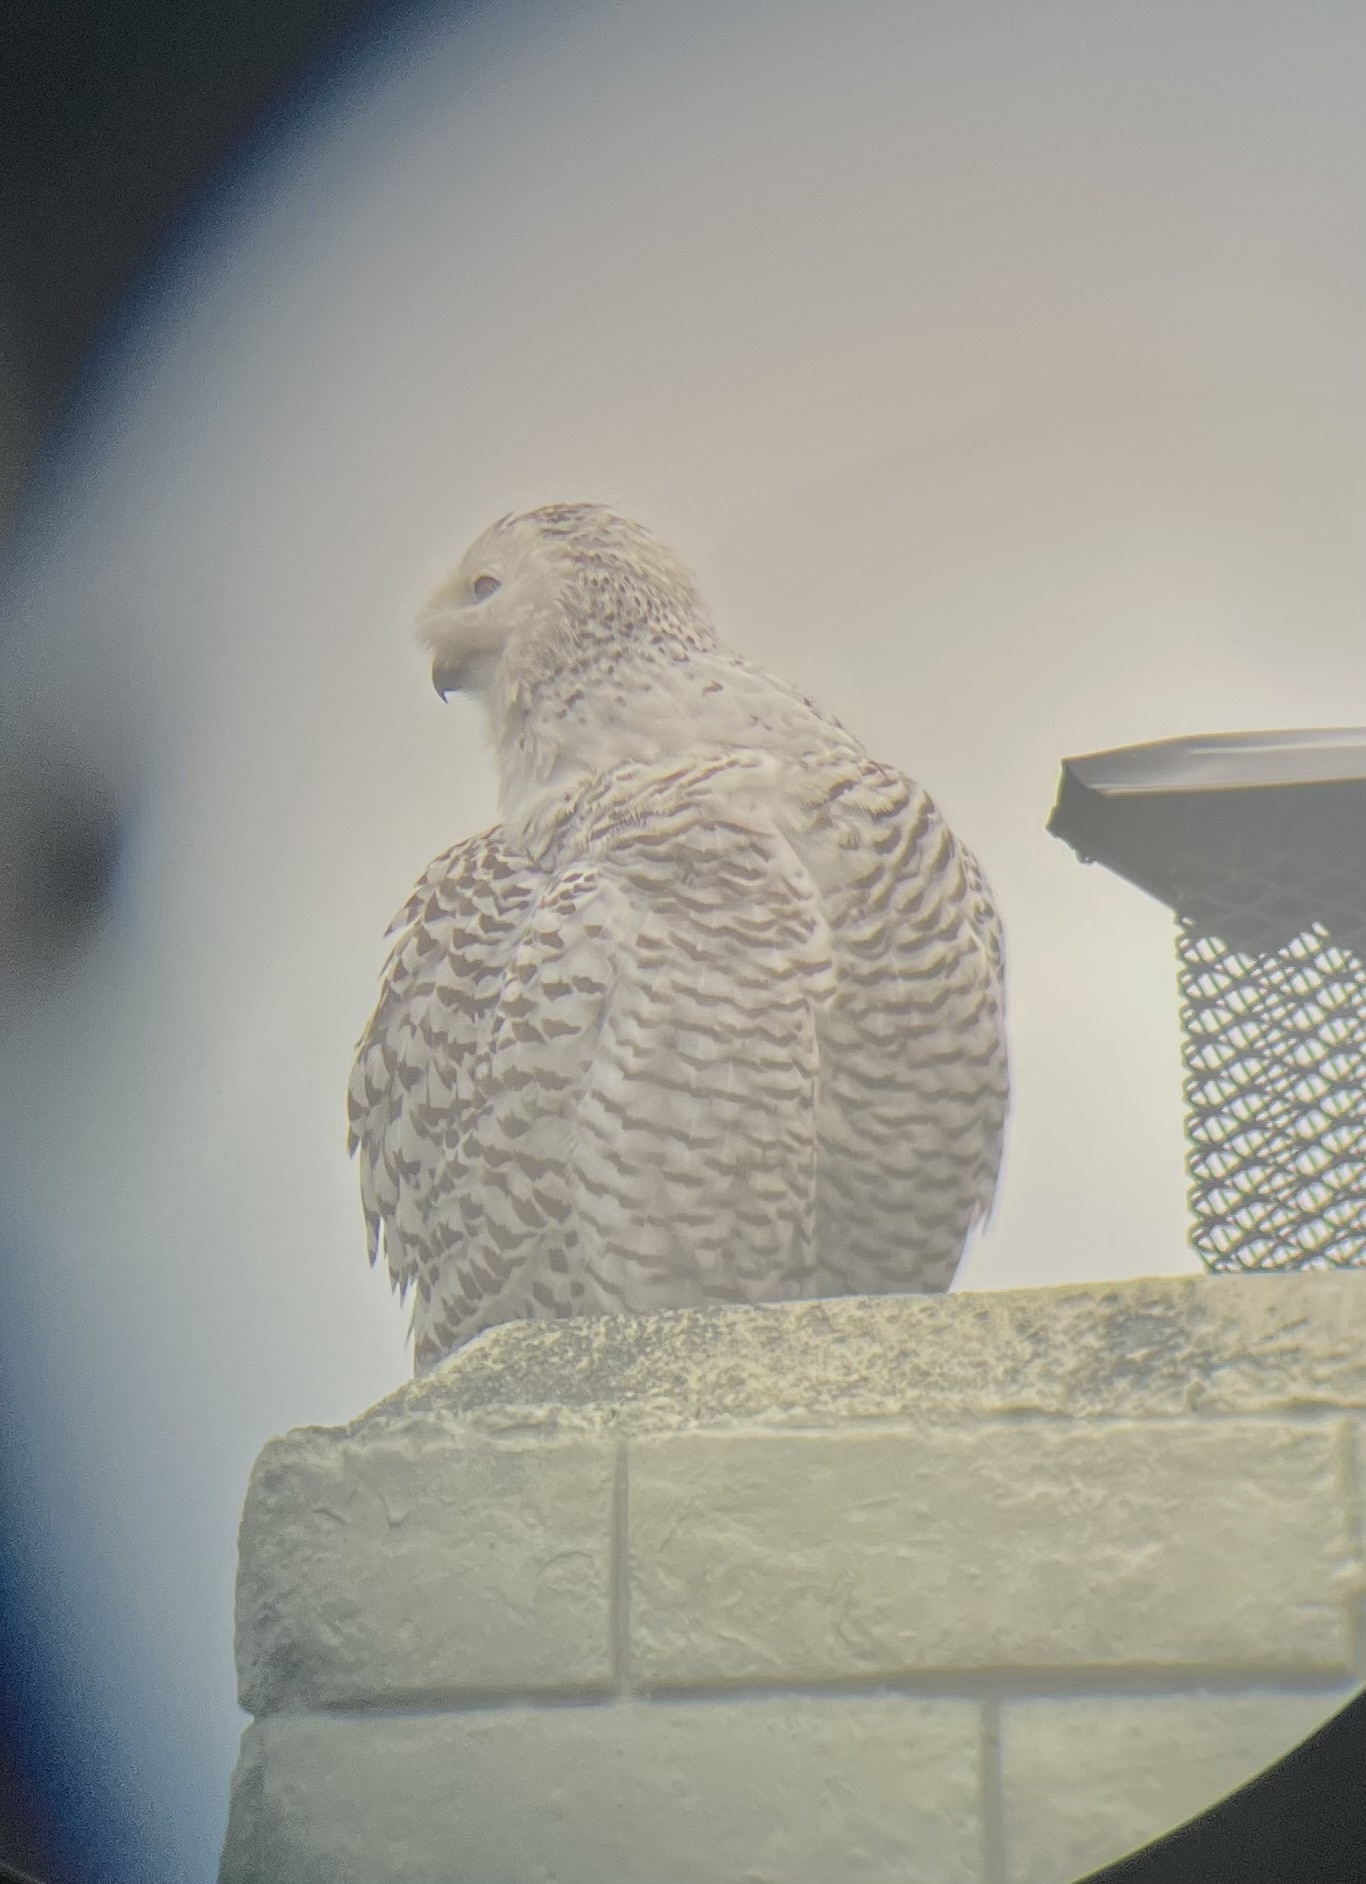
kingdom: Animalia
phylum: Chordata
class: Aves
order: Strigiformes
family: Strigidae
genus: Bubo
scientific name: Bubo scandiacus
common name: Snowy owl
